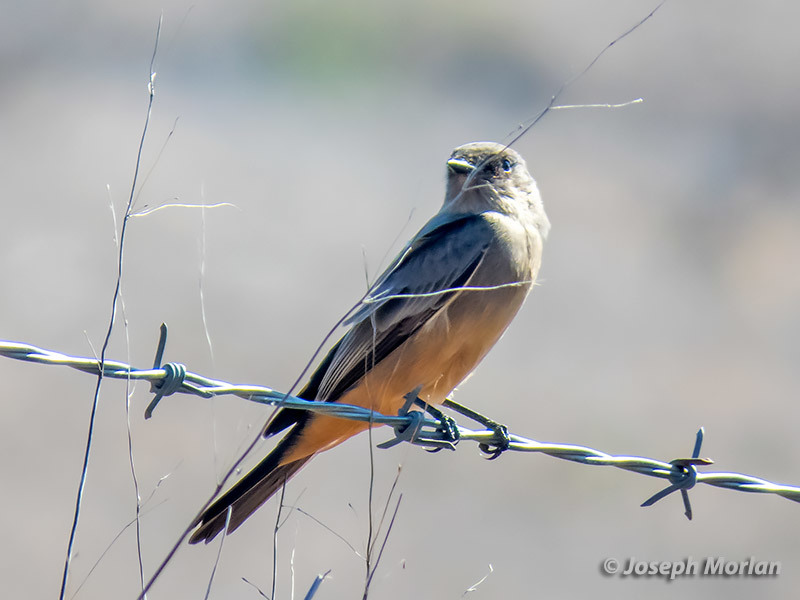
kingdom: Animalia
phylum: Chordata
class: Aves
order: Passeriformes
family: Tyrannidae
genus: Sayornis
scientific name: Sayornis saya
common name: Say's phoebe
